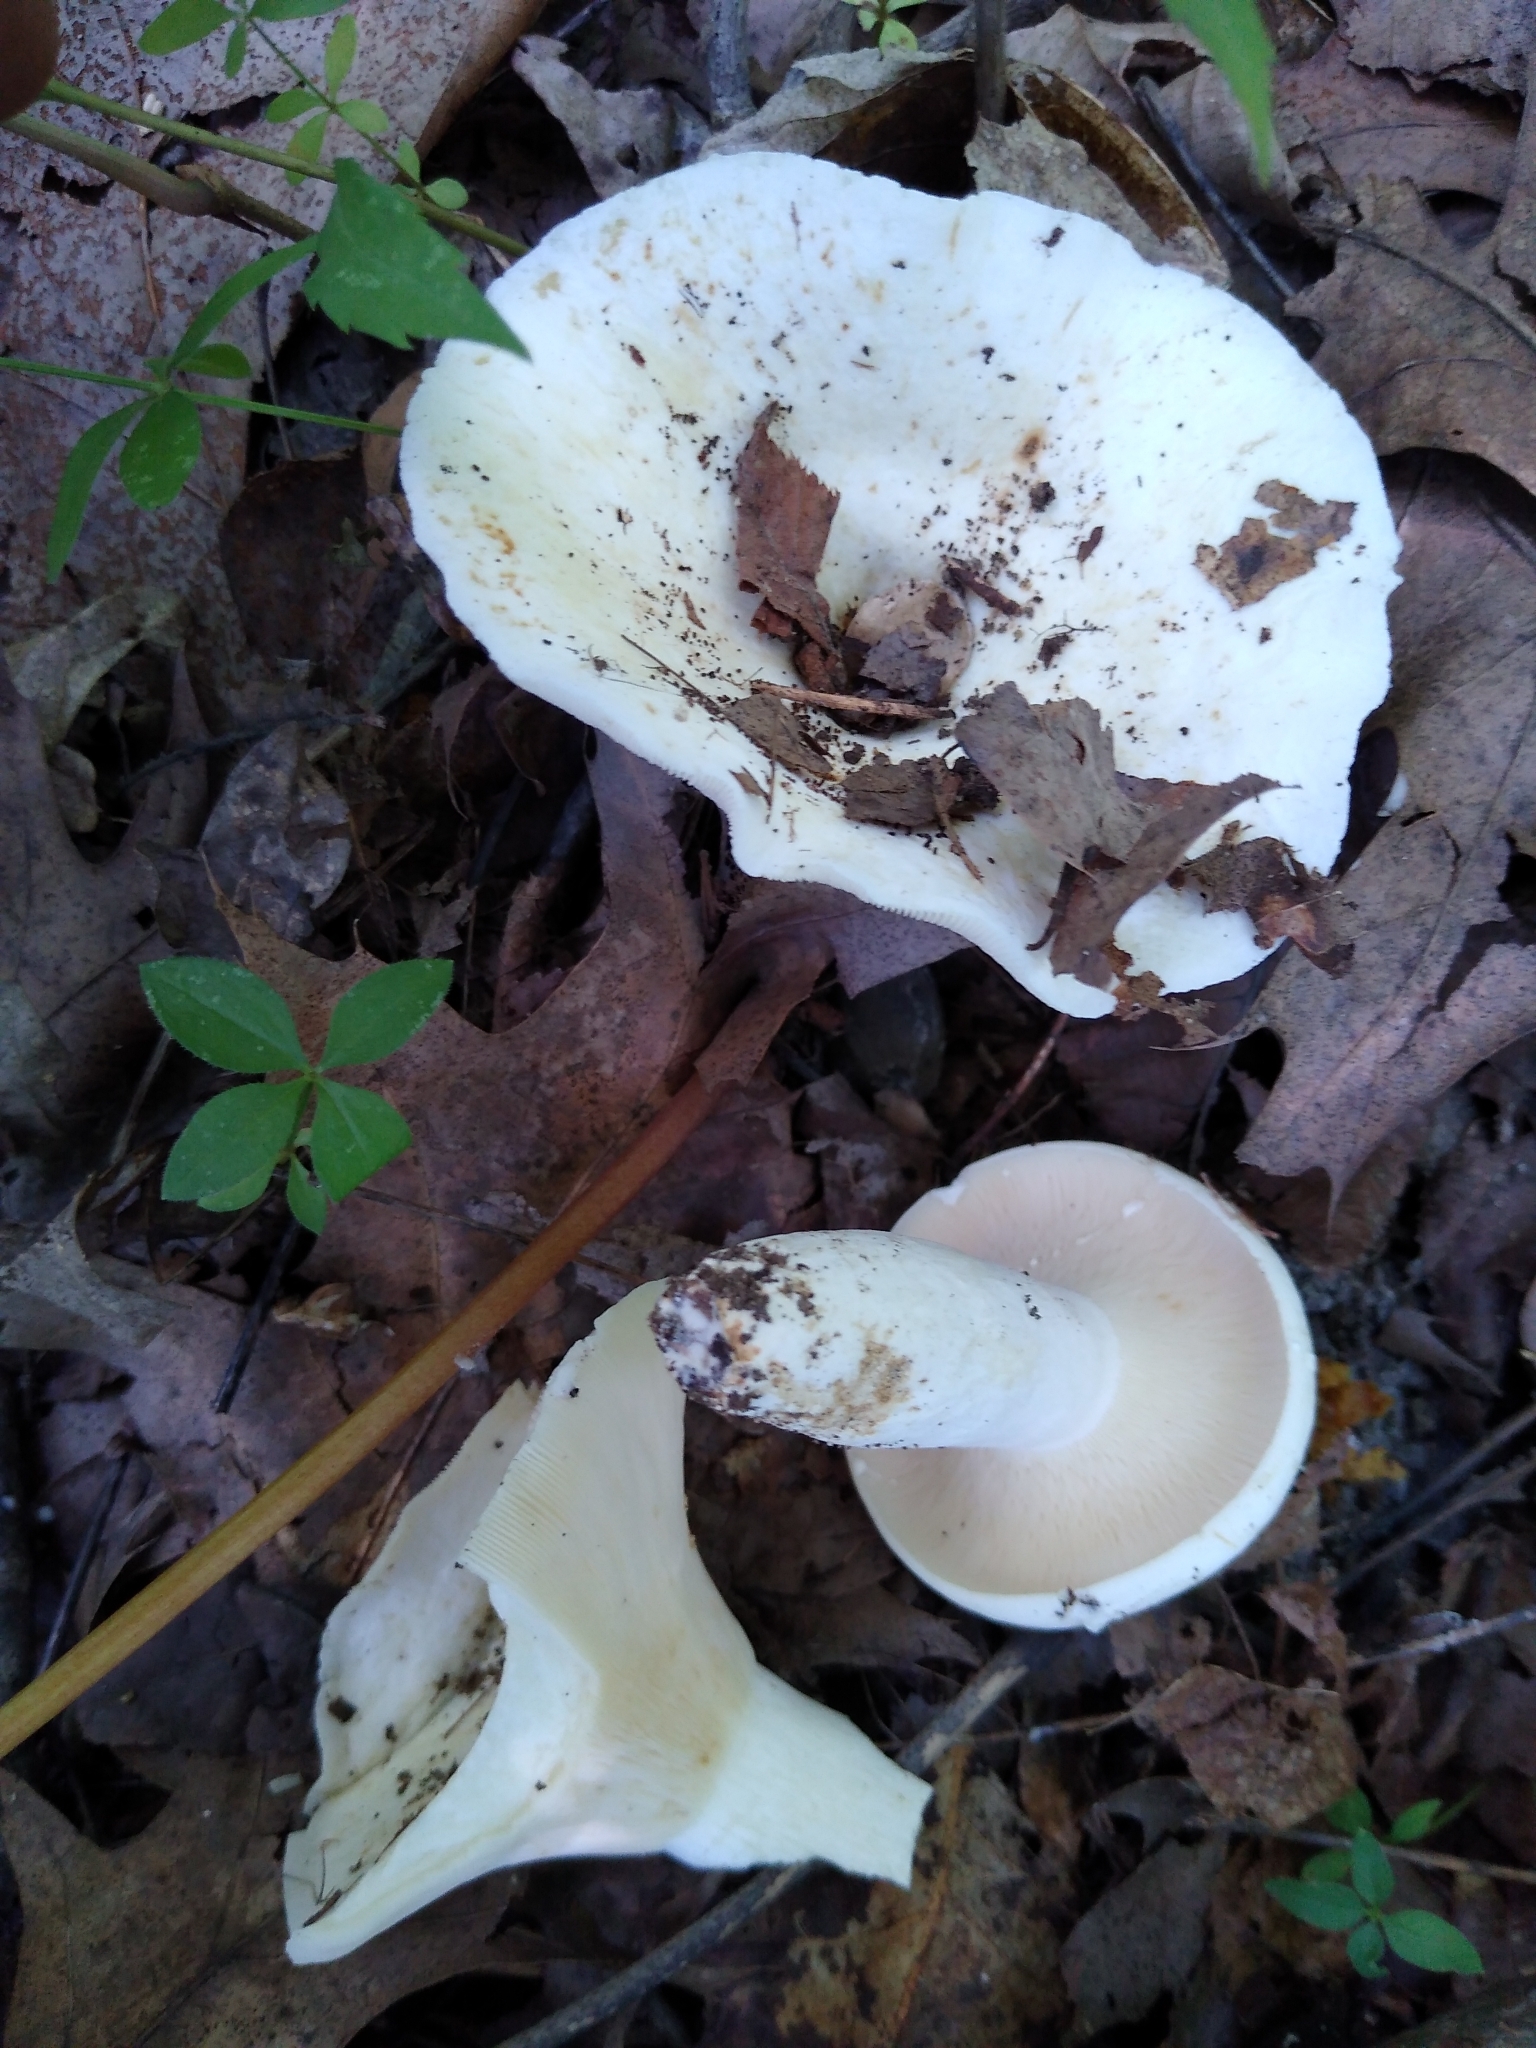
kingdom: Fungi
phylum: Basidiomycota
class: Agaricomycetes
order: Russulales
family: Russulaceae
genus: Lactifluus
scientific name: Lactifluus piperatus
